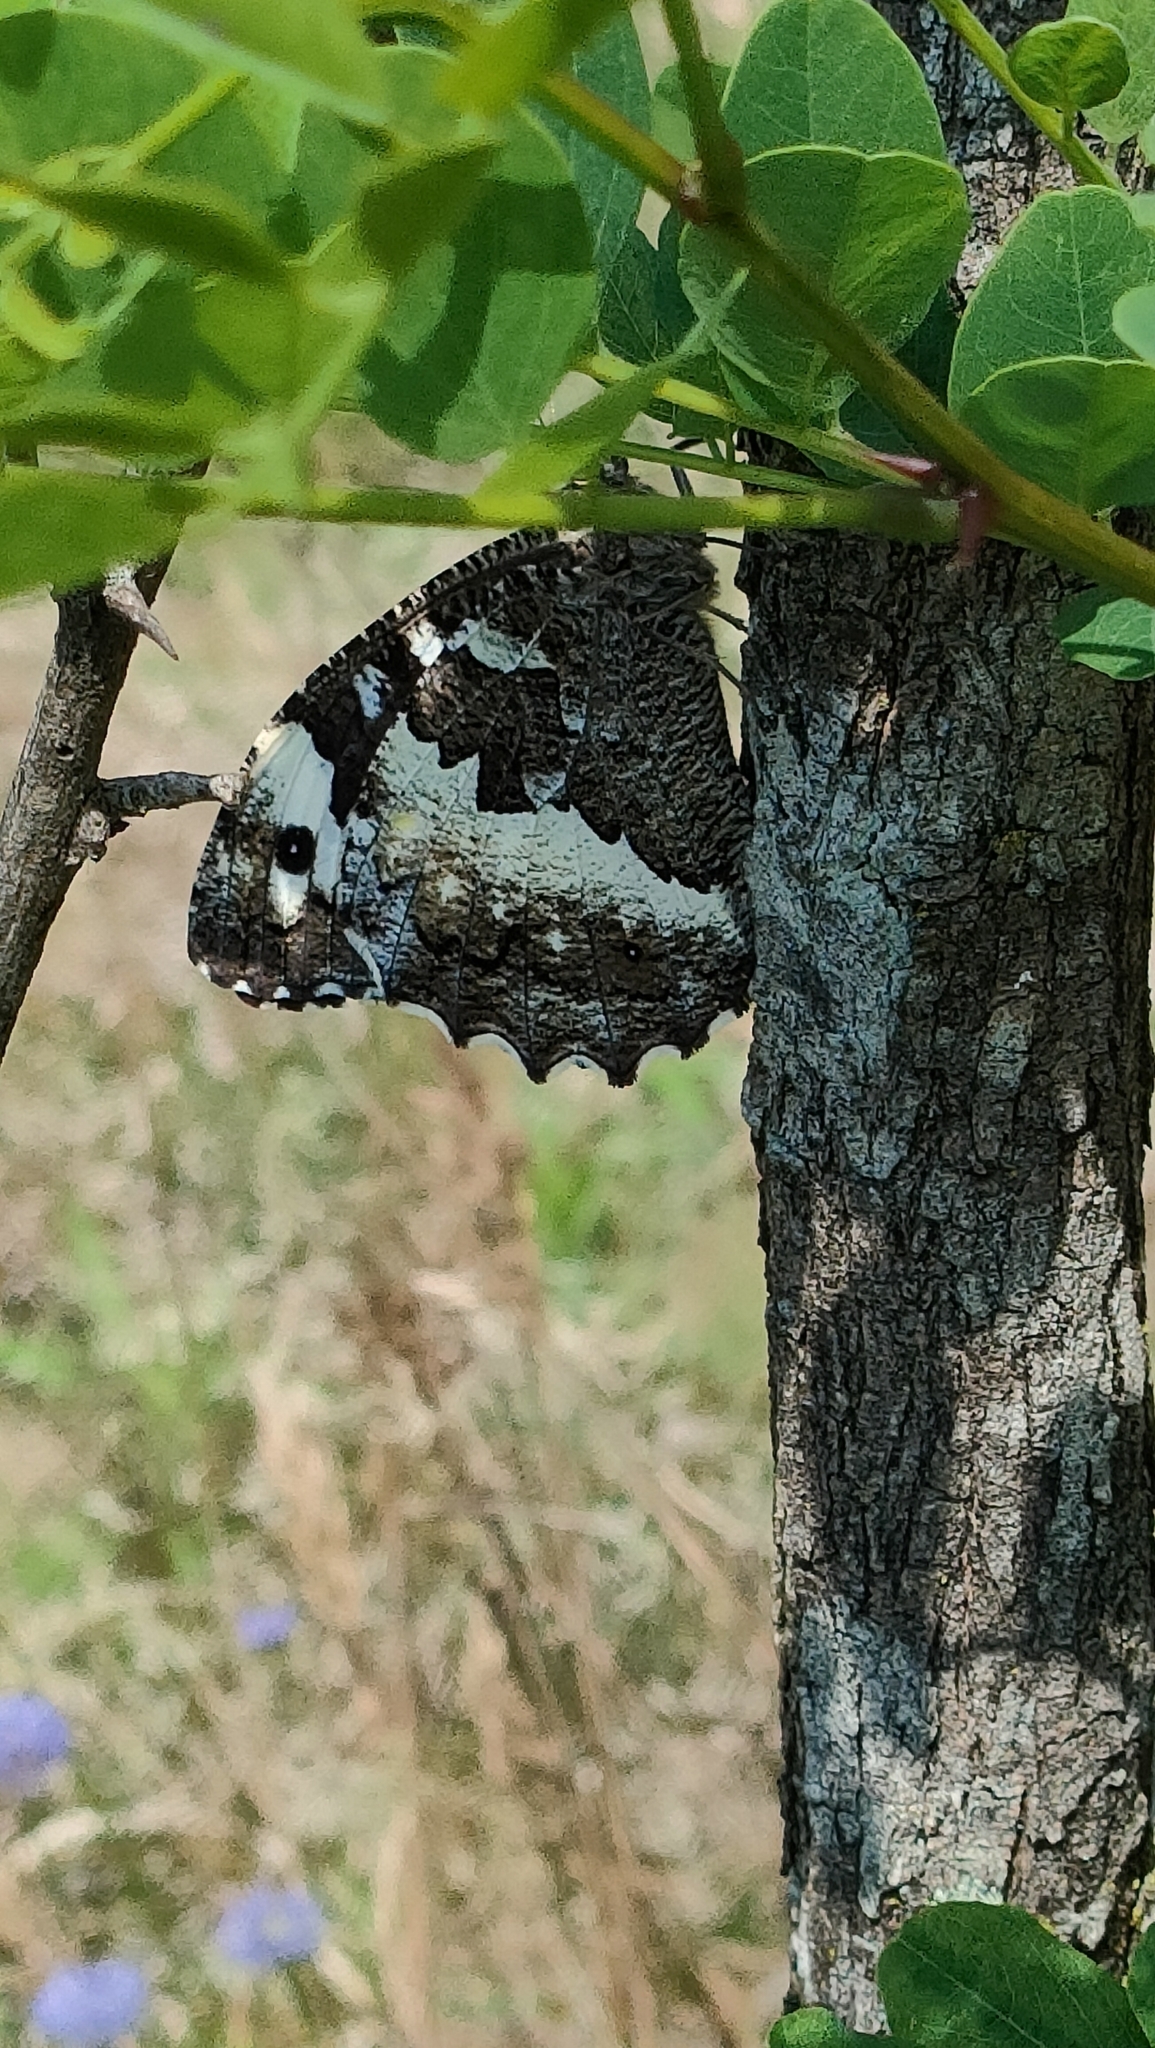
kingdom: Animalia
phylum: Arthropoda
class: Insecta
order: Lepidoptera
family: Lycaenidae
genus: Loweia
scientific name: Loweia tityrus
